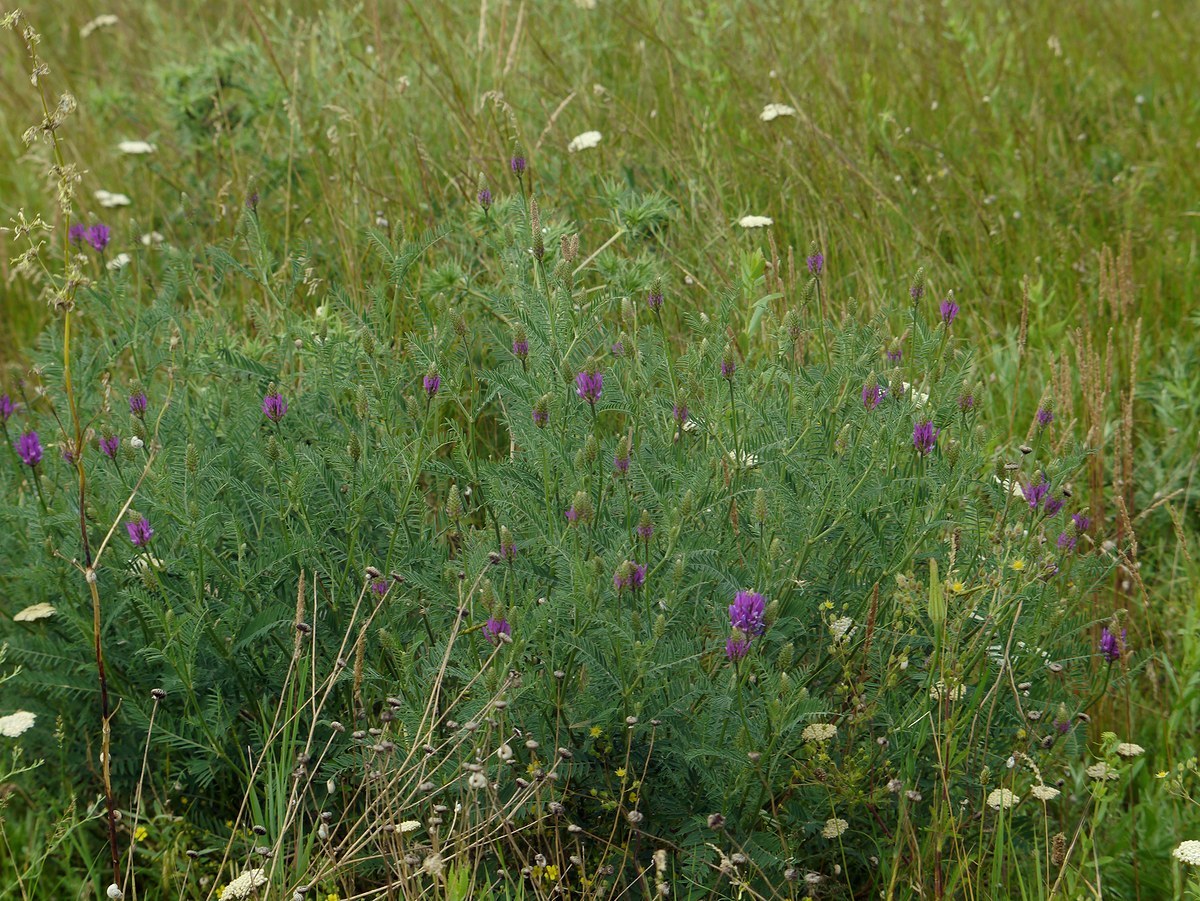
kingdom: Plantae
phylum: Tracheophyta
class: Magnoliopsida
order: Fabales
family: Fabaceae
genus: Astragalus
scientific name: Astragalus onobrychis
